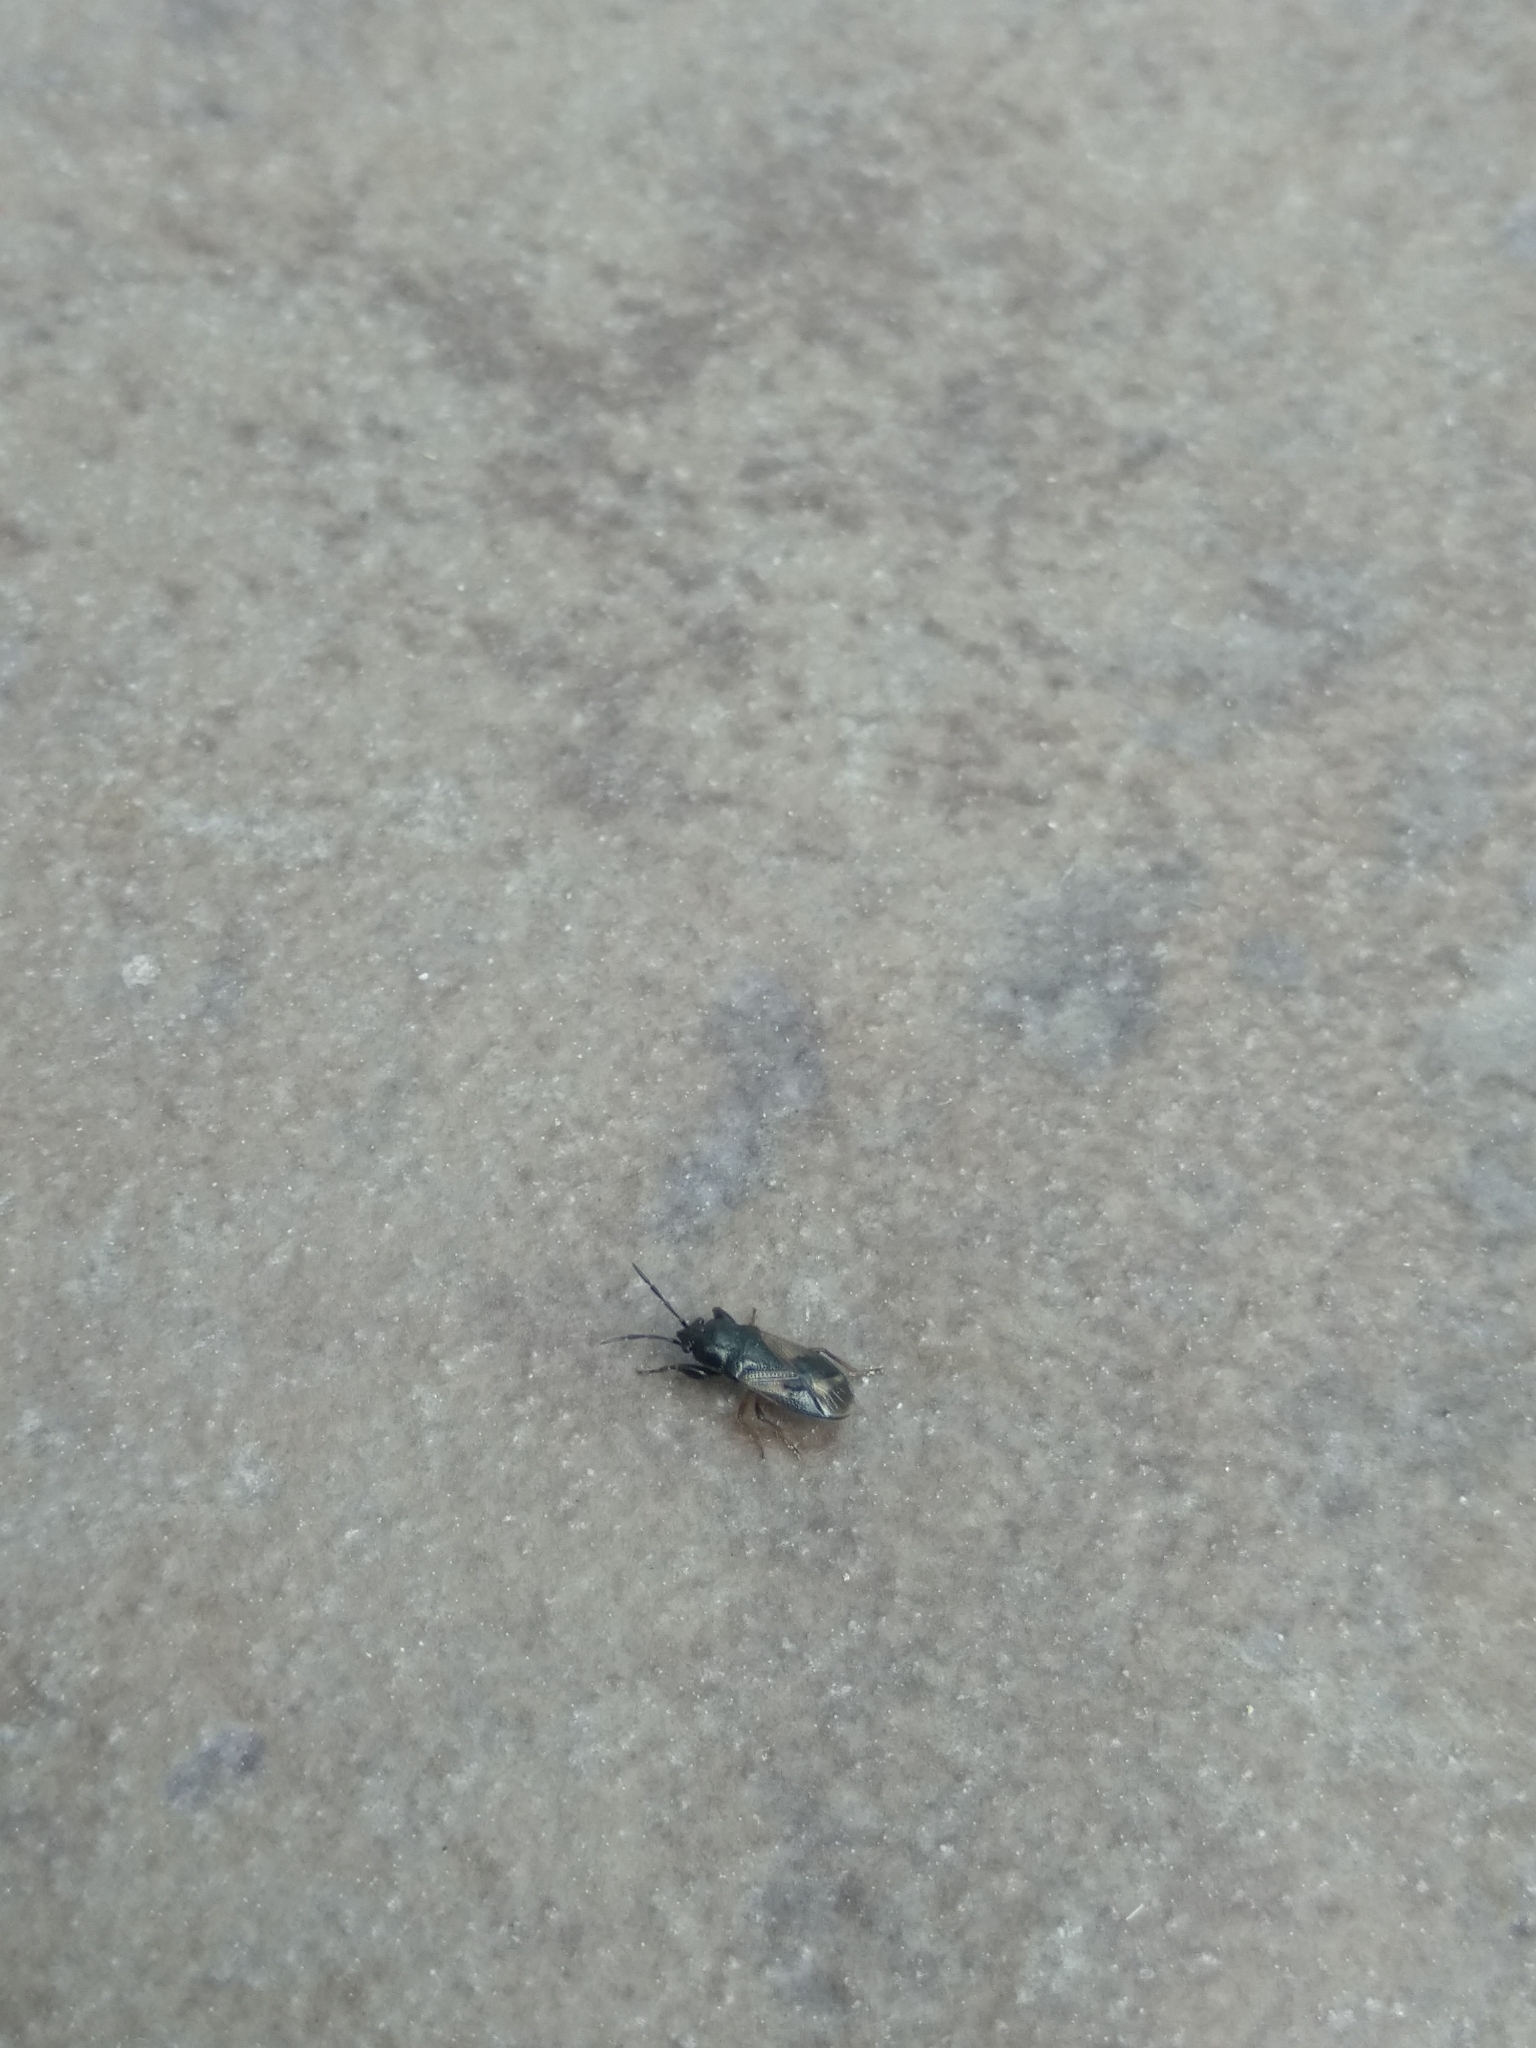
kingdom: Animalia
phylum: Arthropoda
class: Insecta
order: Hemiptera
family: Rhyparochromidae
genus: Megalonotus
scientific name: Megalonotus praetextatus
